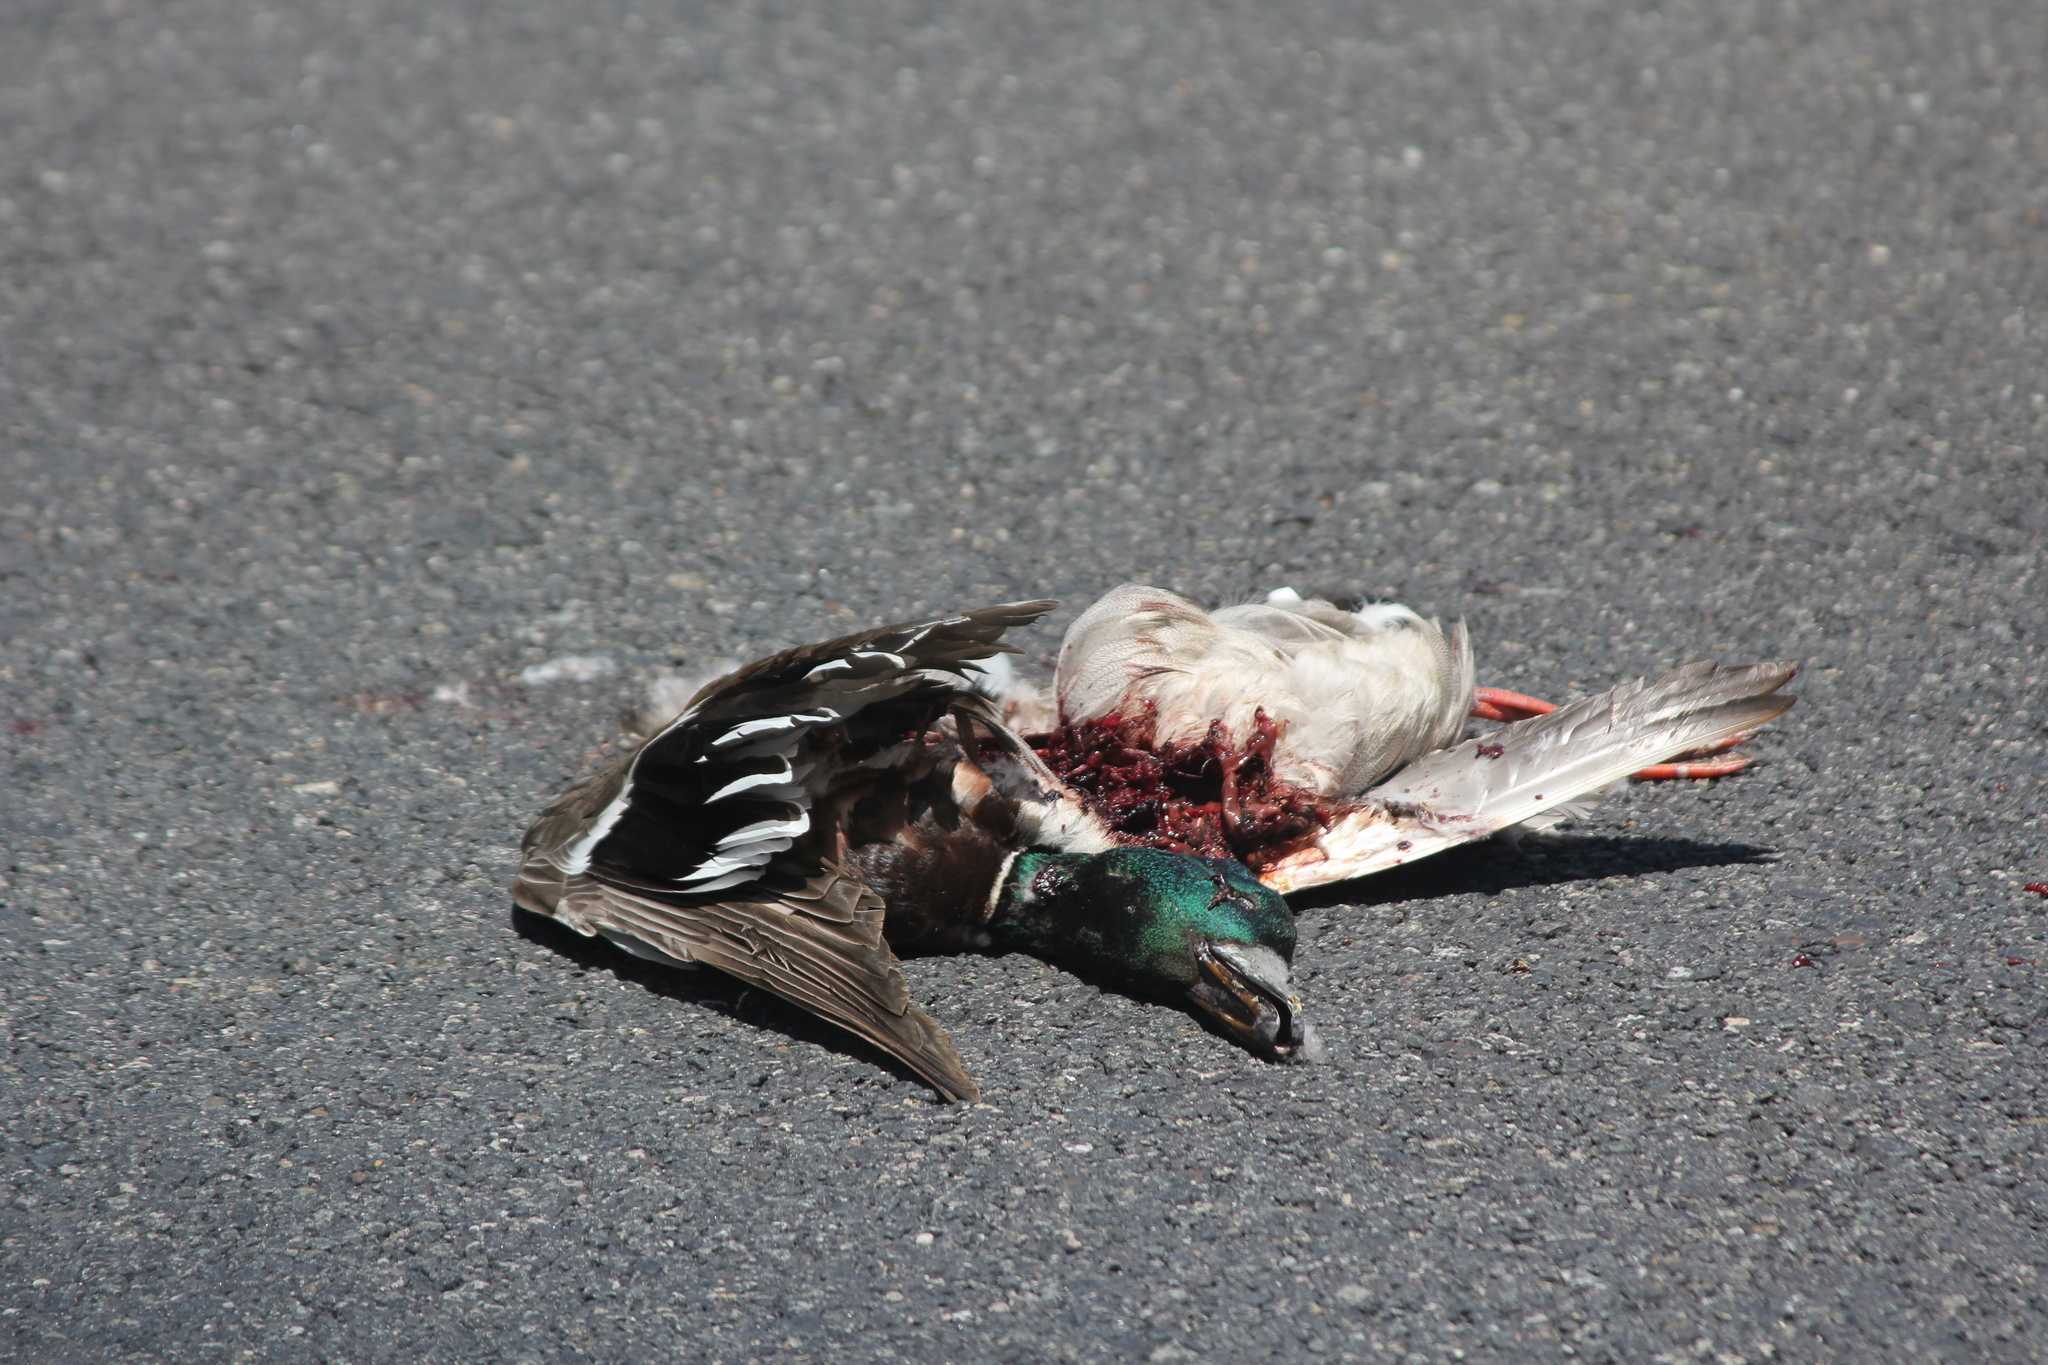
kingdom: Animalia
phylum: Chordata
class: Aves
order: Anseriformes
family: Anatidae
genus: Anas
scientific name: Anas platyrhynchos
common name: Mallard
